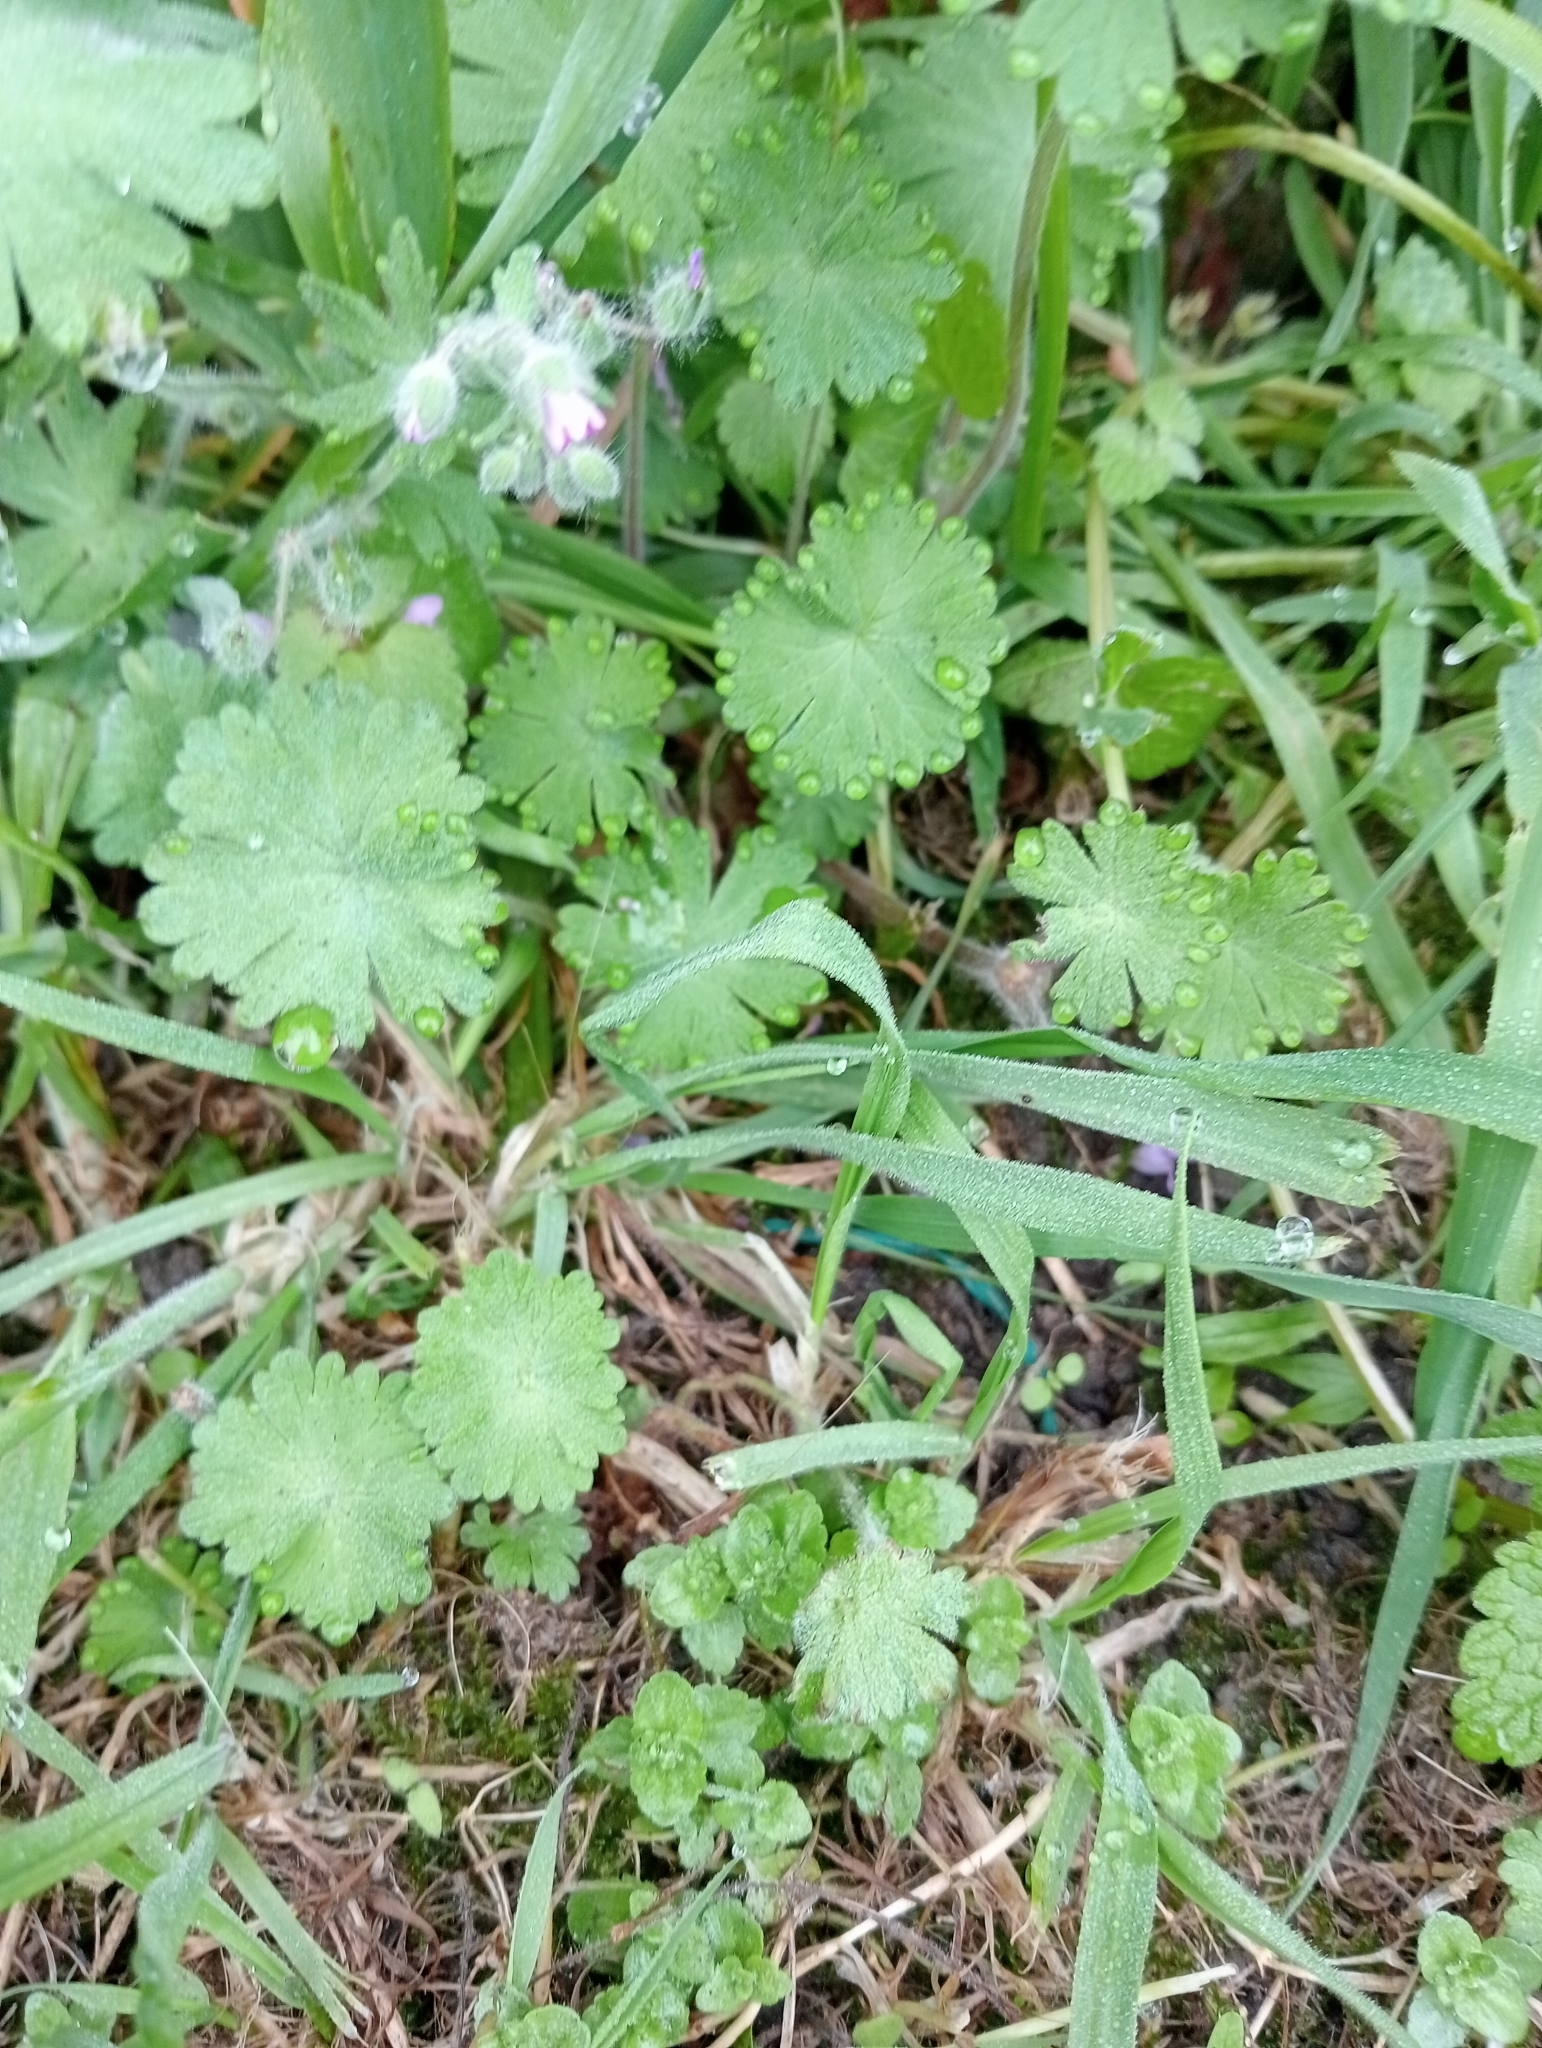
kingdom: Plantae
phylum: Tracheophyta
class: Magnoliopsida
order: Geraniales
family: Geraniaceae
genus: Geranium
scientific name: Geranium molle
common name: Dove's-foot crane's-bill
